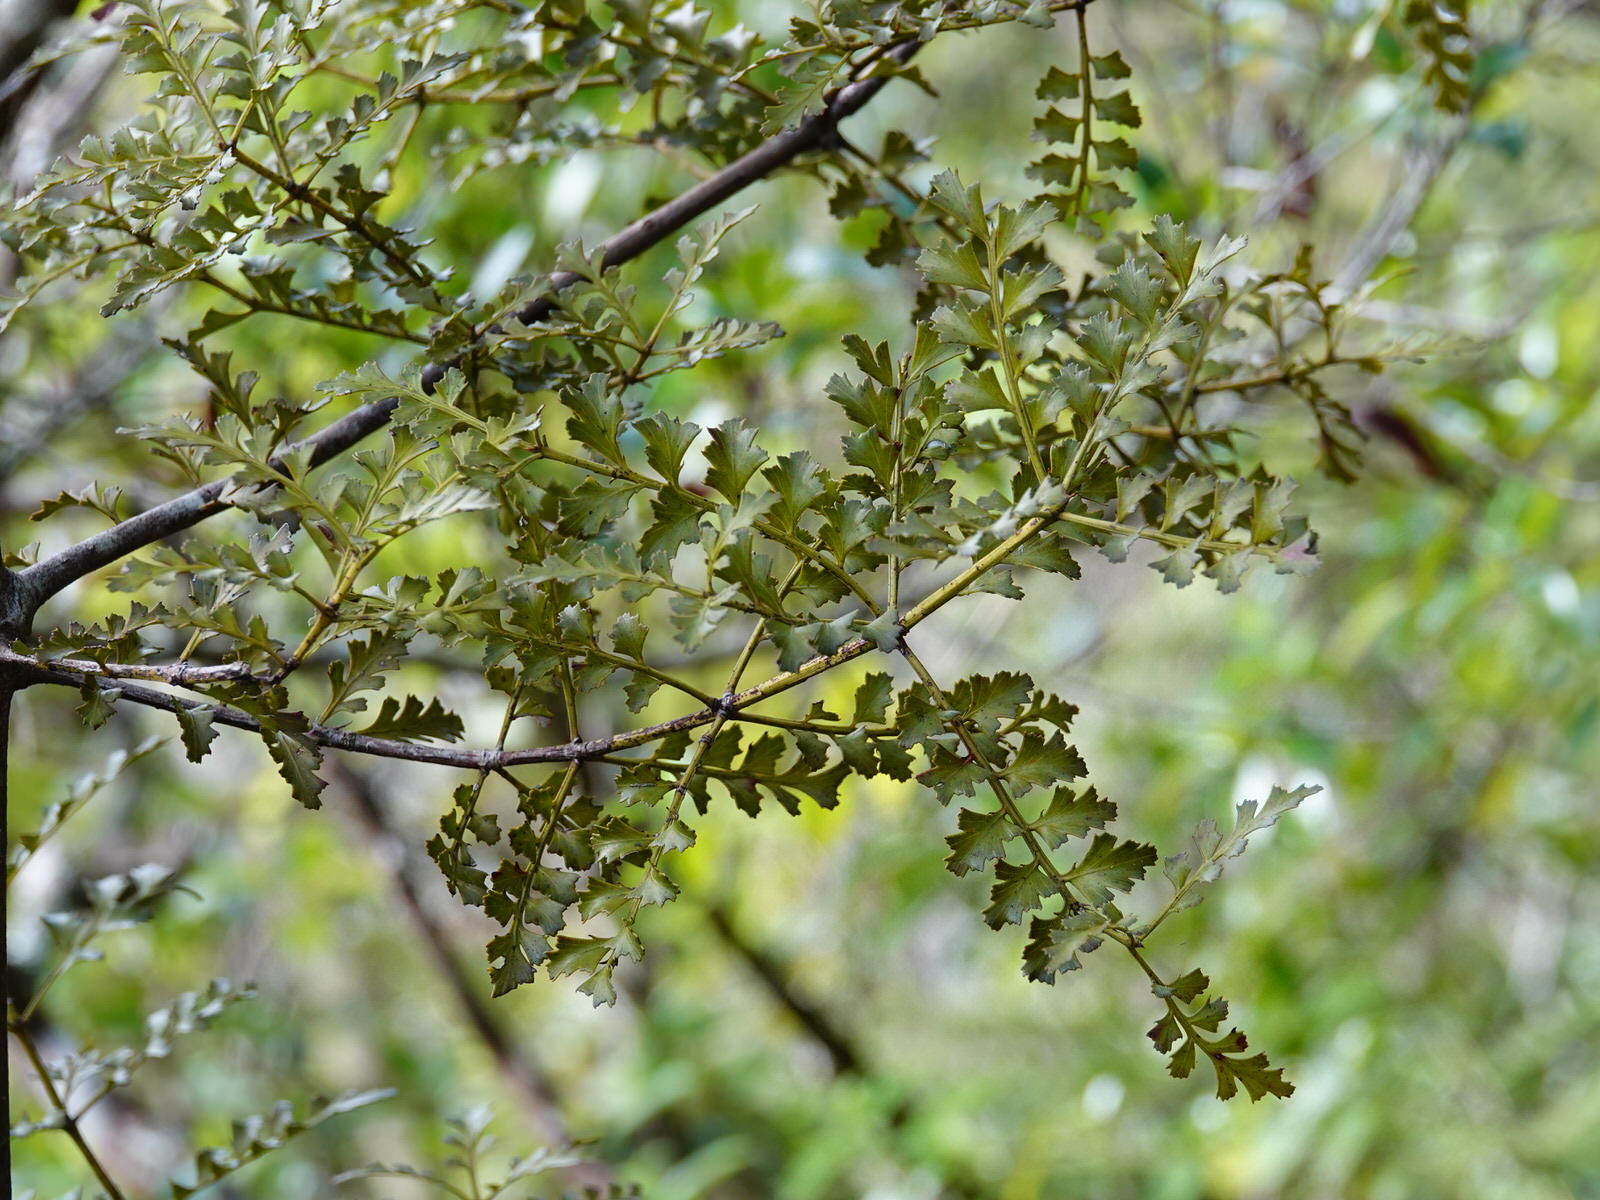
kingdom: Plantae
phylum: Tracheophyta
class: Pinopsida
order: Pinales
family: Phyllocladaceae
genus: Phyllocladus
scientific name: Phyllocladus trichomanoides
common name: Celery pine
